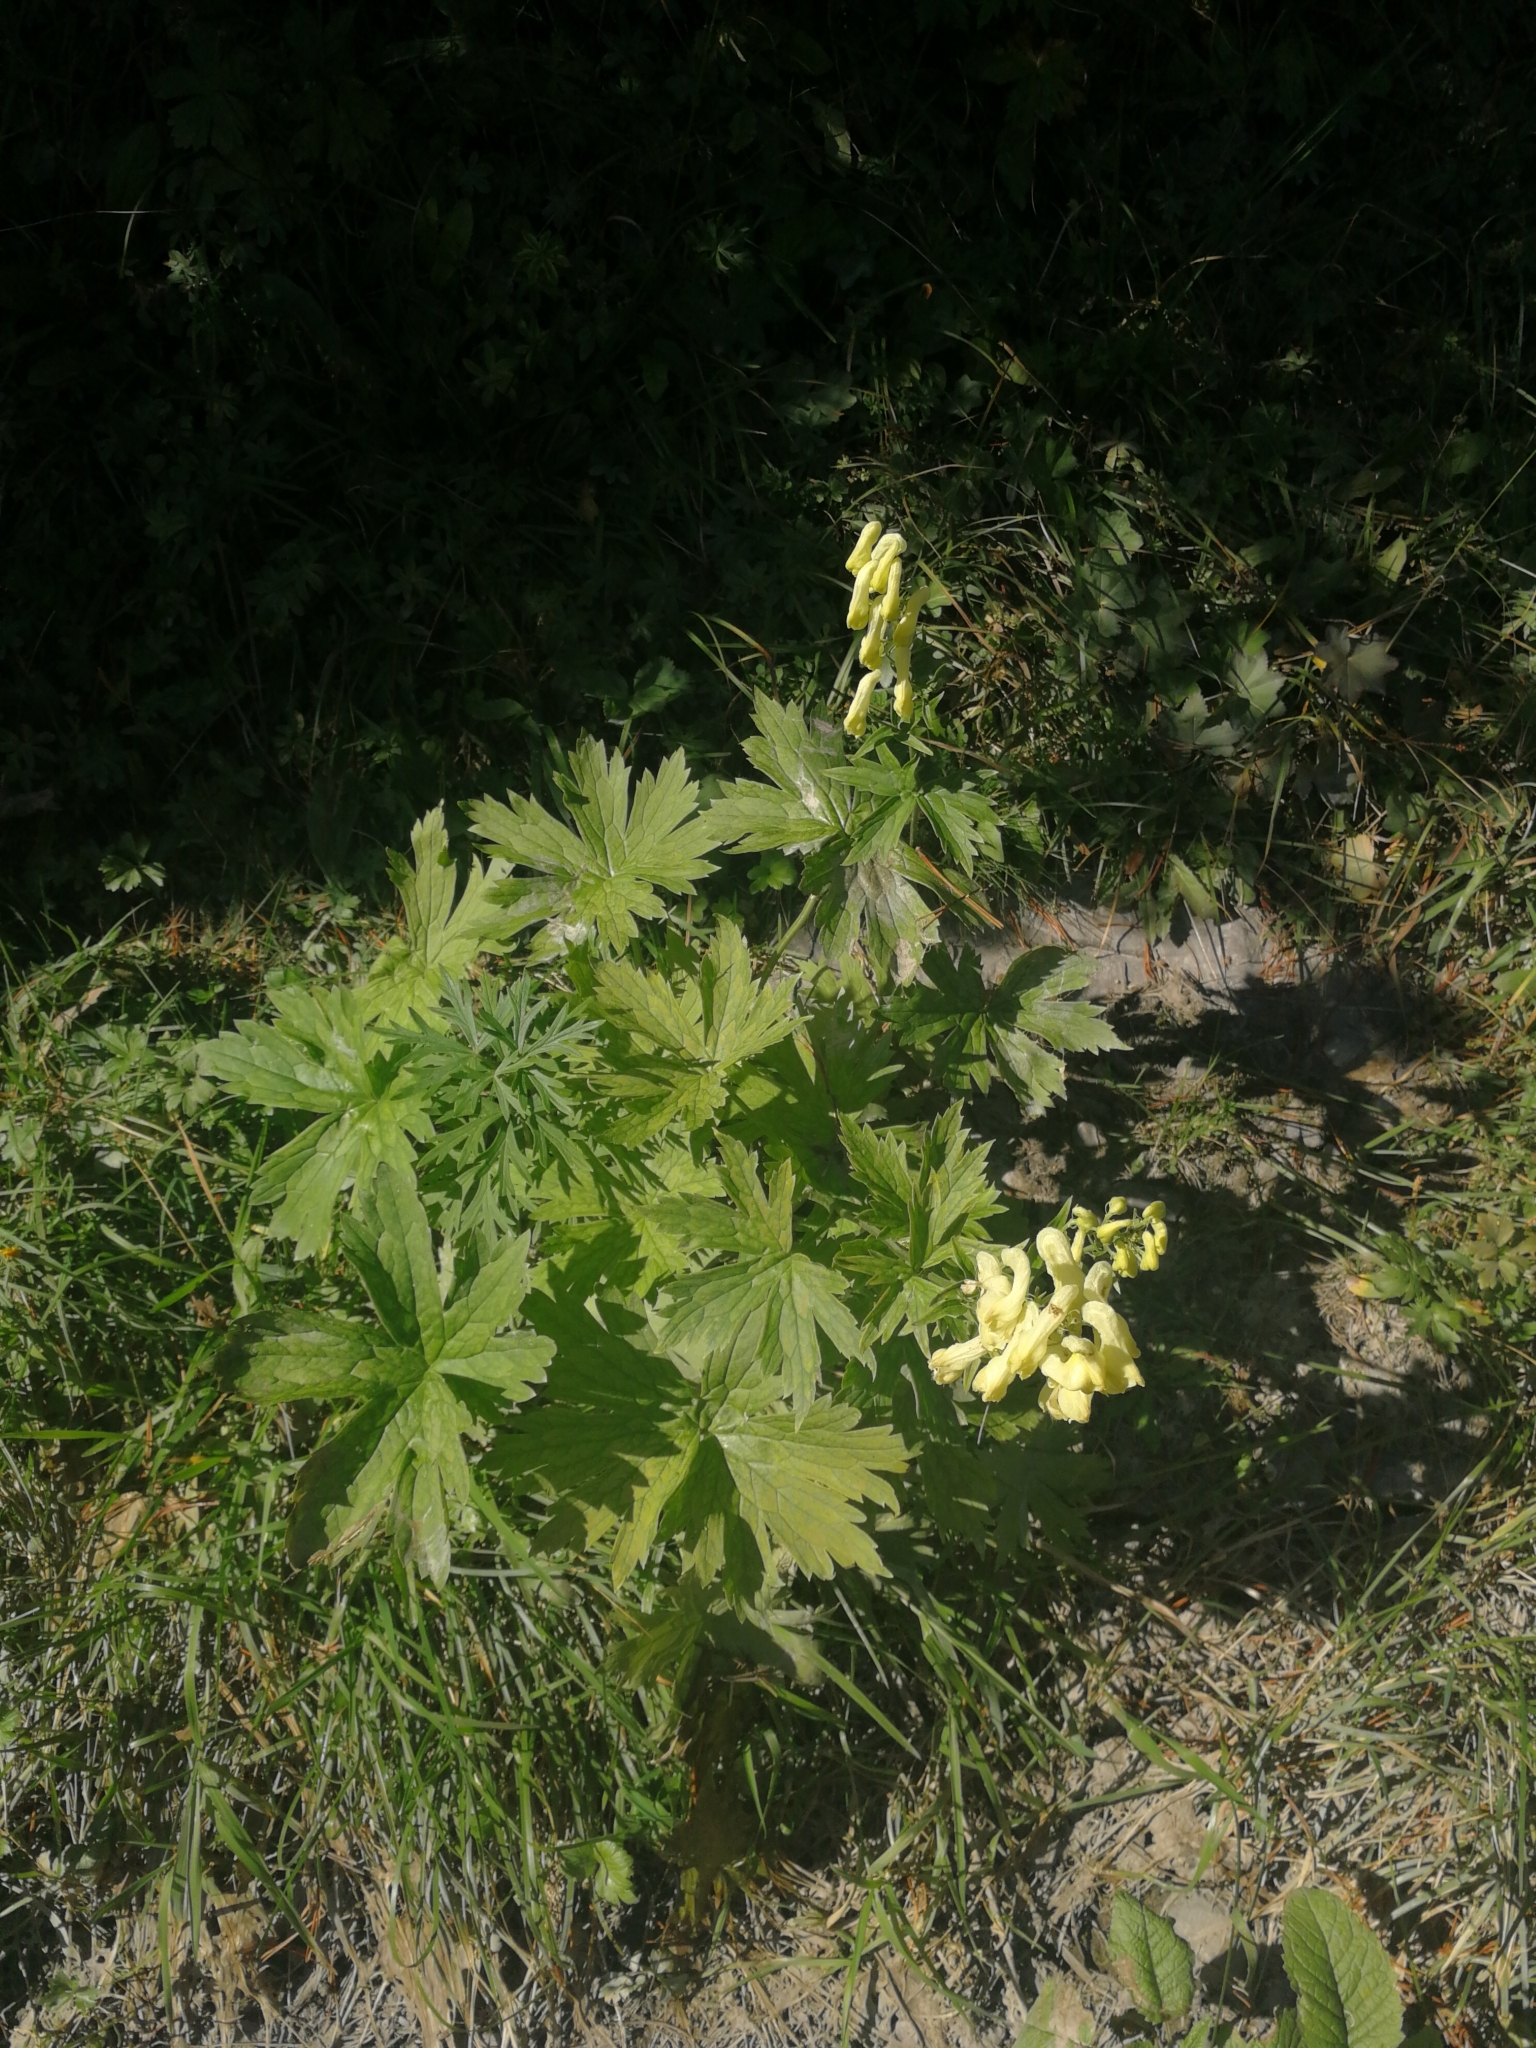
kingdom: Plantae
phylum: Tracheophyta
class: Magnoliopsida
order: Ranunculales
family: Ranunculaceae
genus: Aconitum
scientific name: Aconitum lycoctonum
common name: Wolf's-bane
